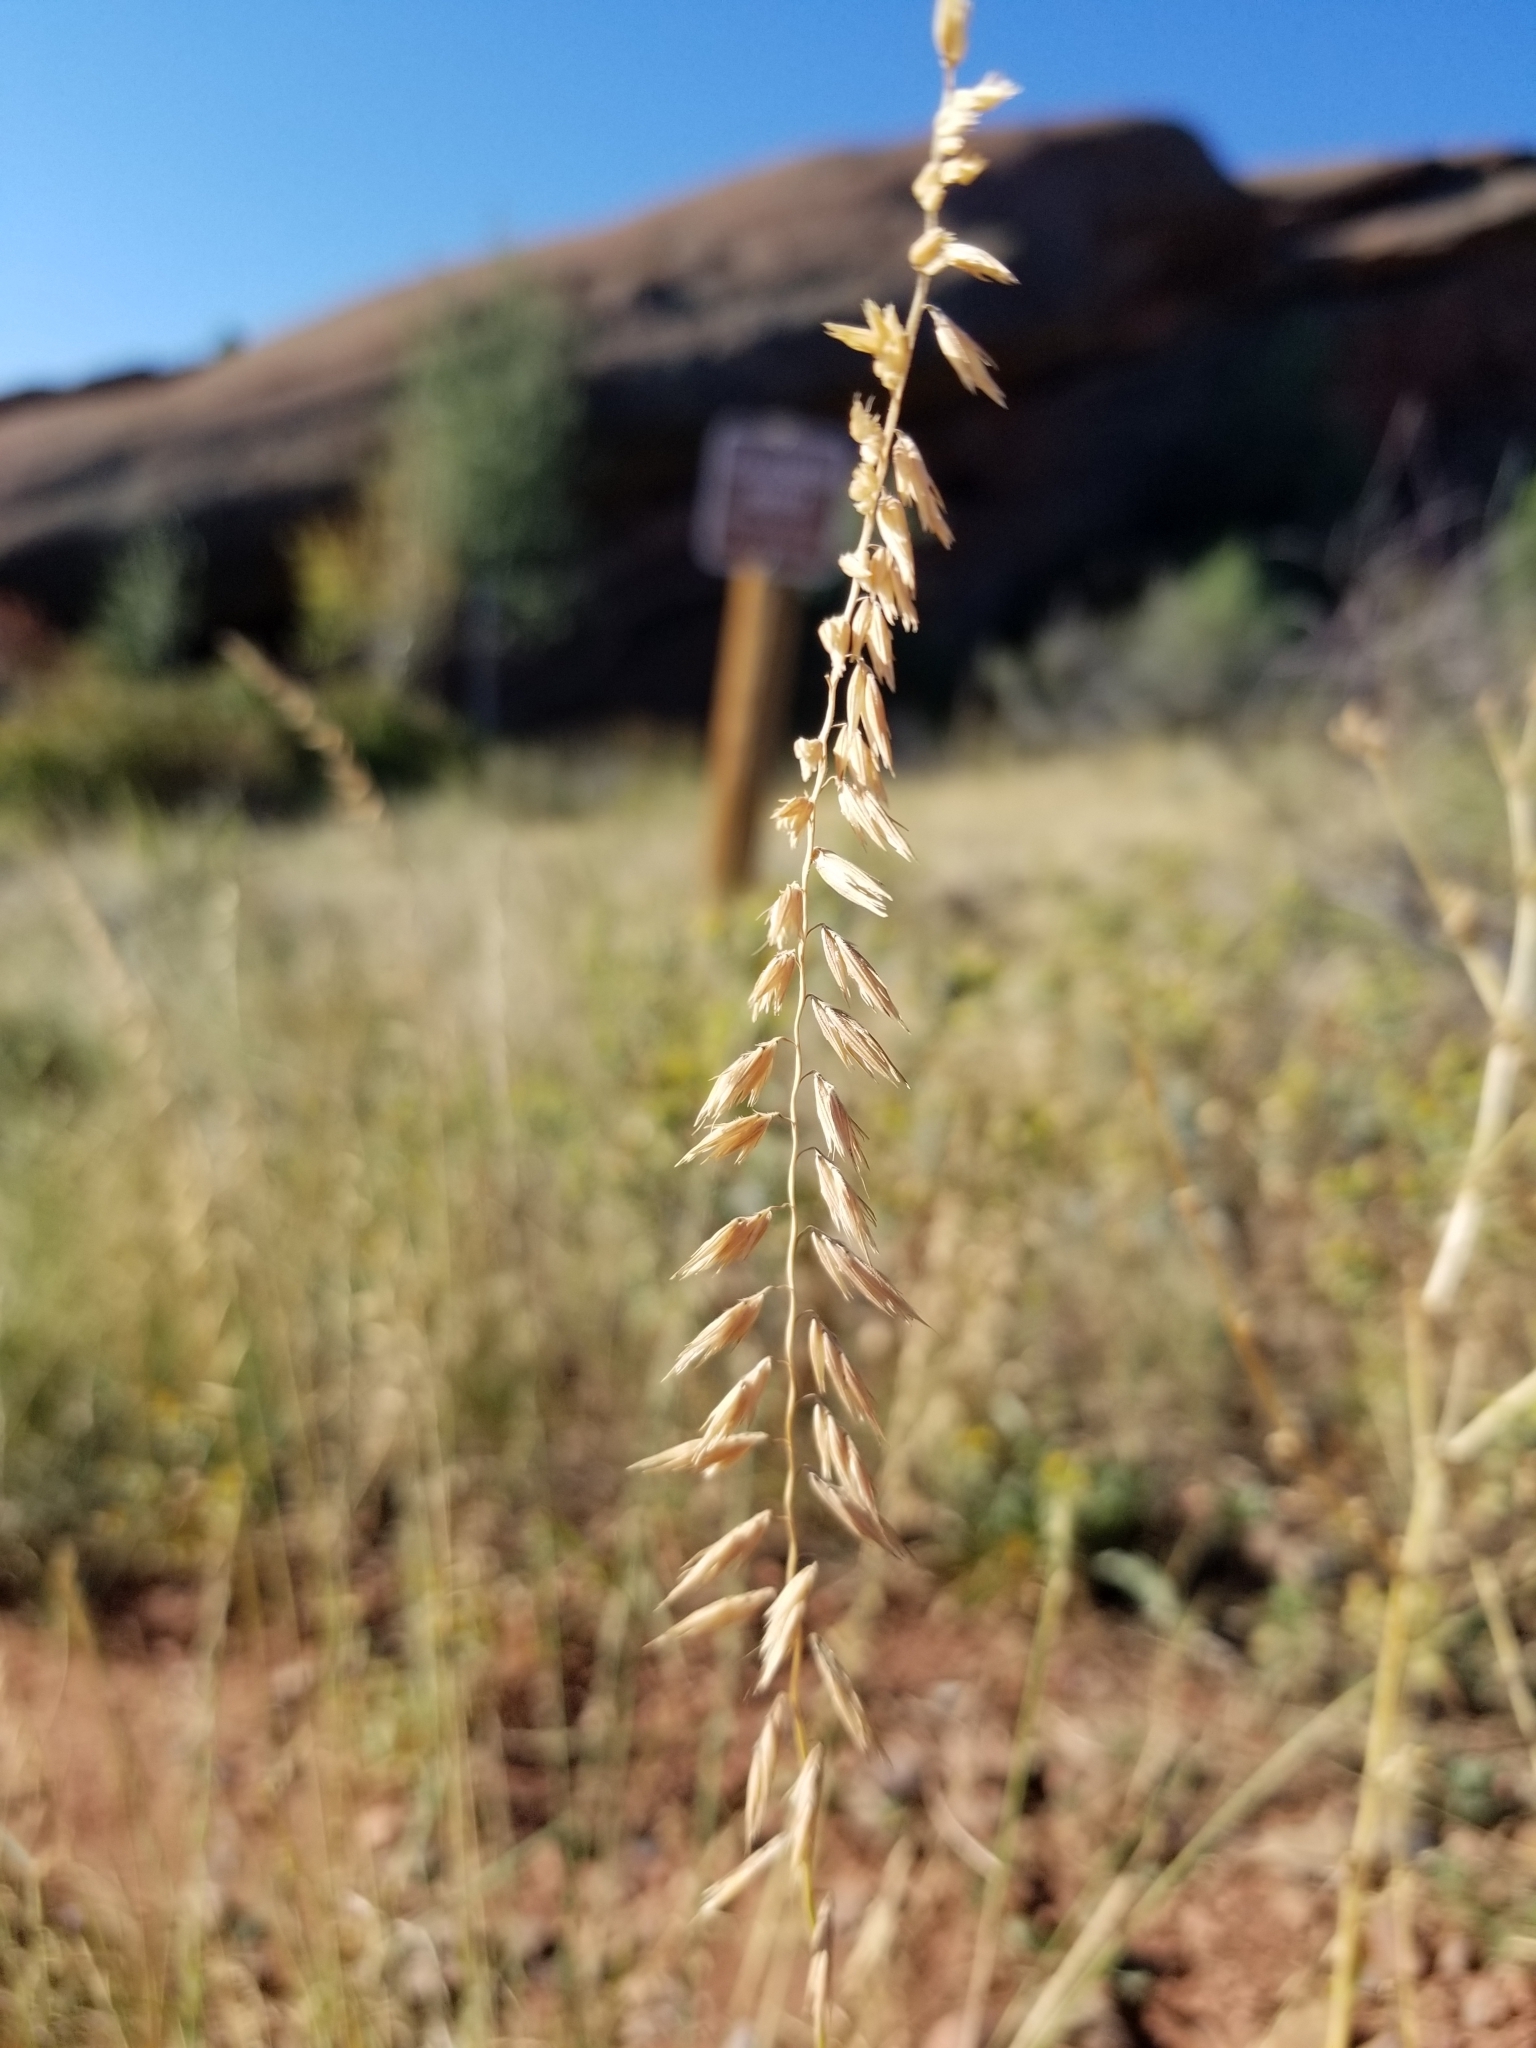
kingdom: Plantae
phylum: Tracheophyta
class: Liliopsida
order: Poales
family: Poaceae
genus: Bouteloua
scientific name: Bouteloua curtipendula
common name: Side-oats grama
